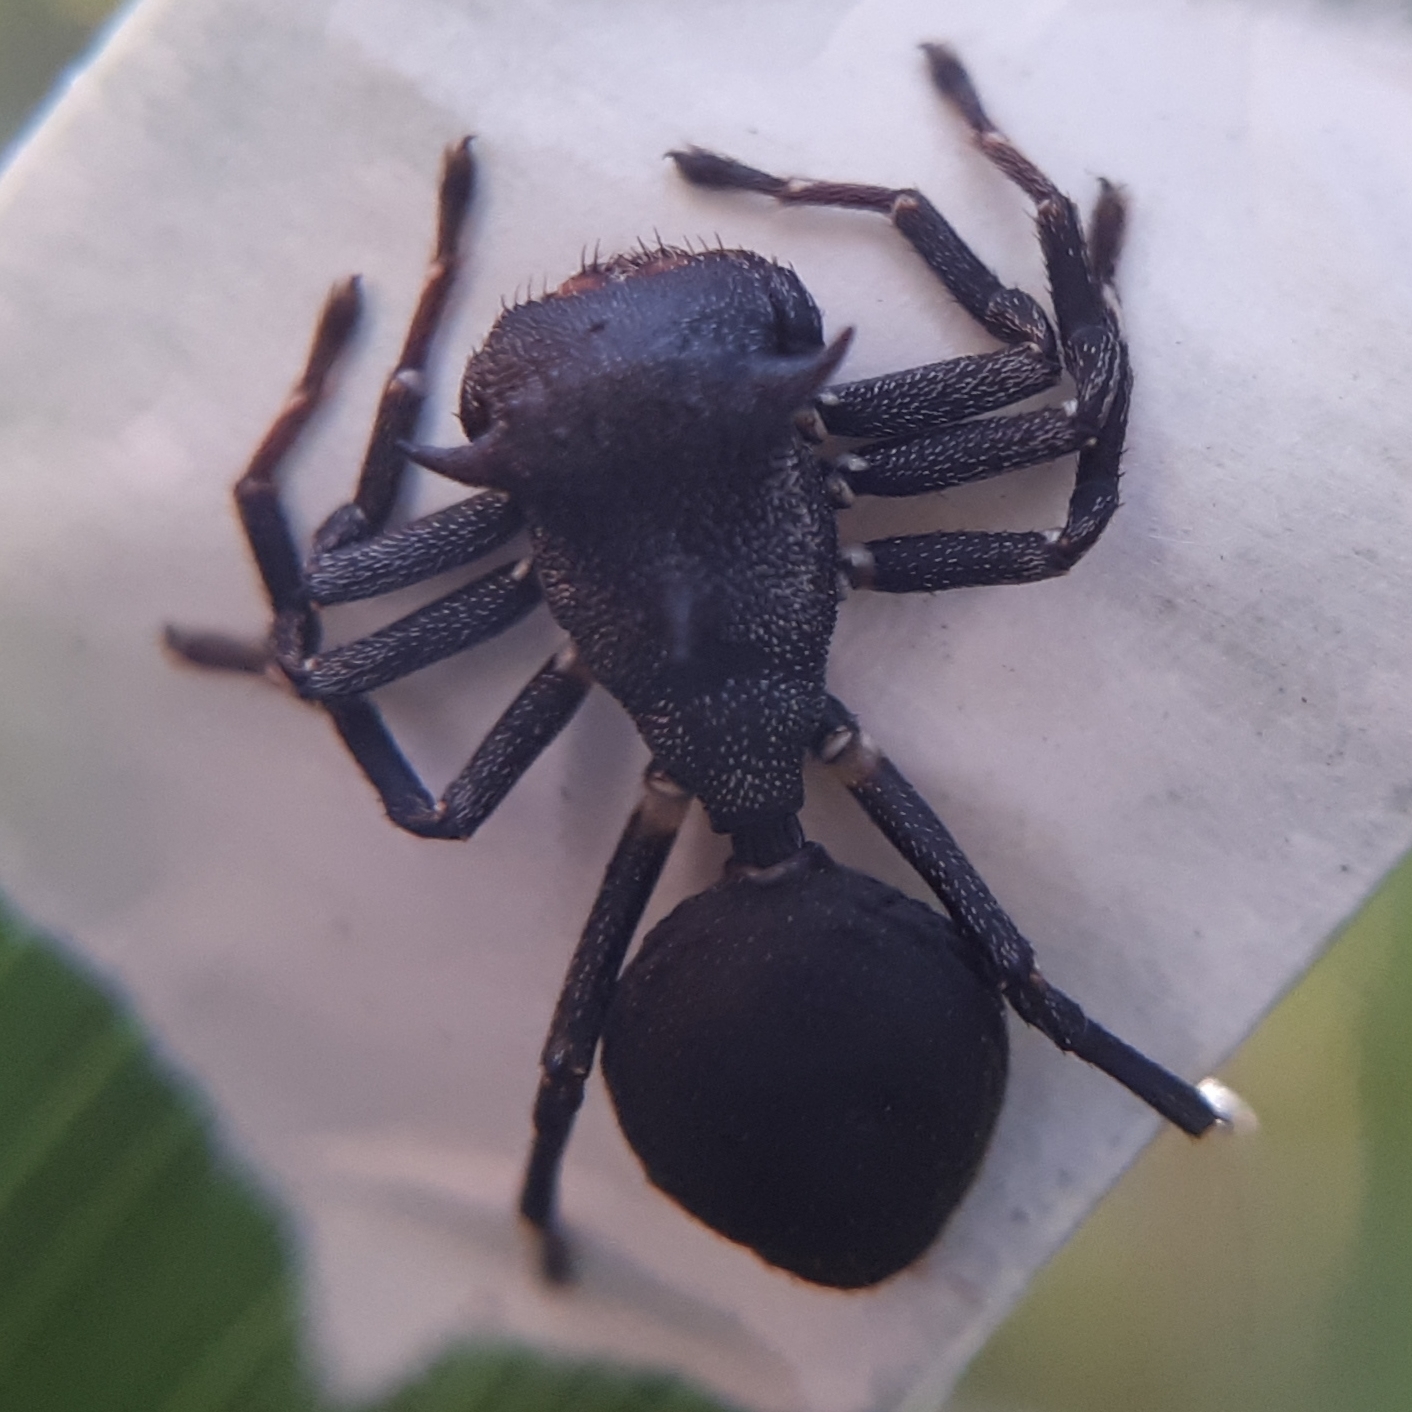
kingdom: Animalia
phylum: Arthropoda
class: Arachnida
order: Araneae
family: Thomisidae
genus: Aphantochilus
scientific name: Aphantochilus inermipes
